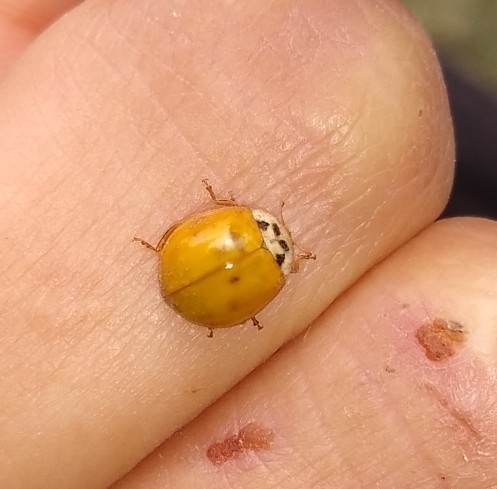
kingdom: Animalia
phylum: Arthropoda
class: Insecta
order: Coleoptera
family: Coccinellidae
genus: Harmonia
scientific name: Harmonia axyridis
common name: Harlequin ladybird
